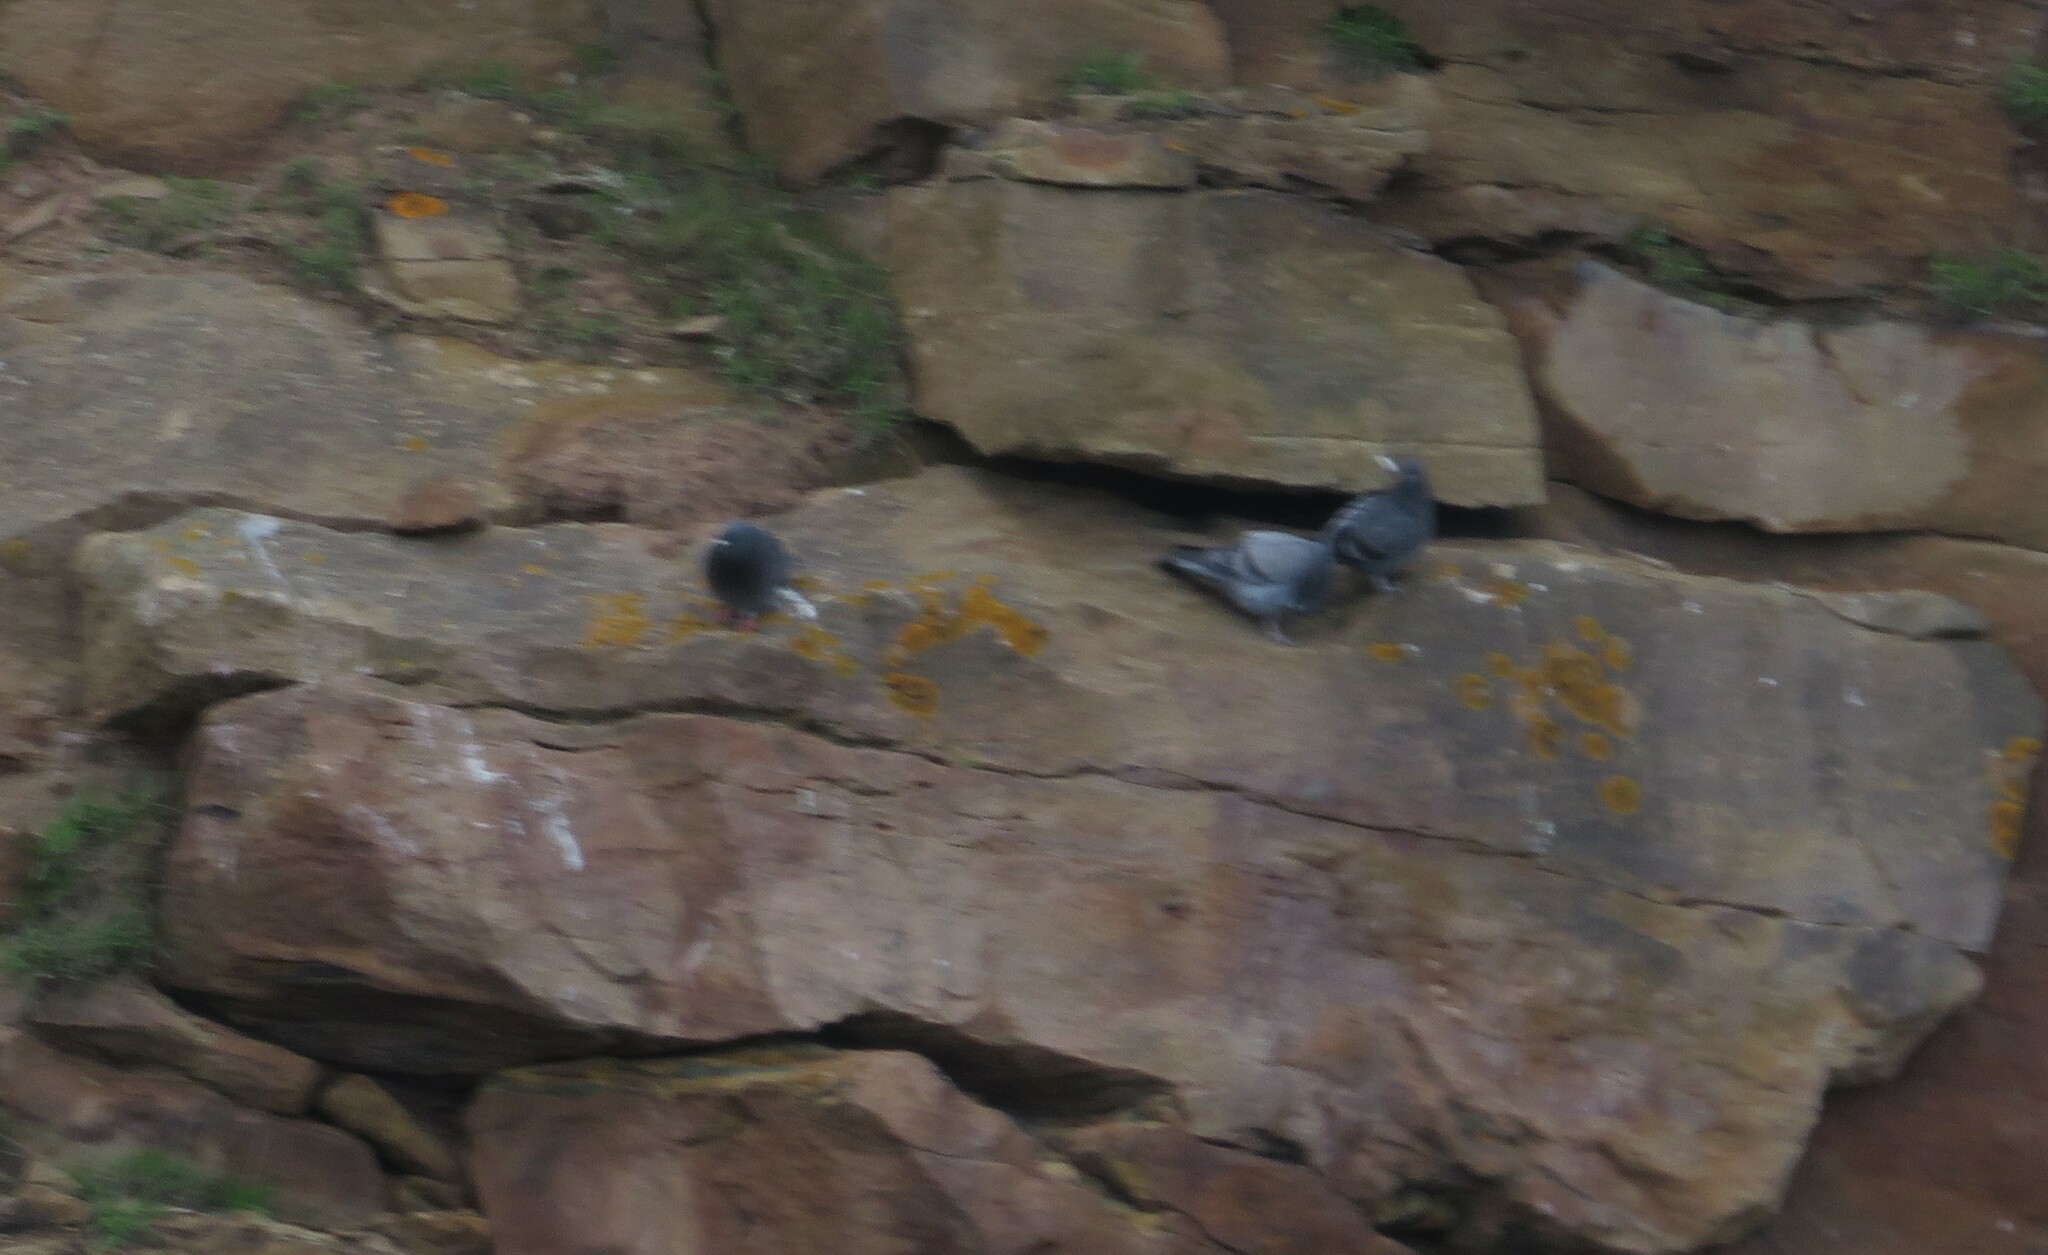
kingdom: Animalia
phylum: Chordata
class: Aves
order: Columbiformes
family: Columbidae
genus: Columba
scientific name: Columba livia
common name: Rock pigeon
